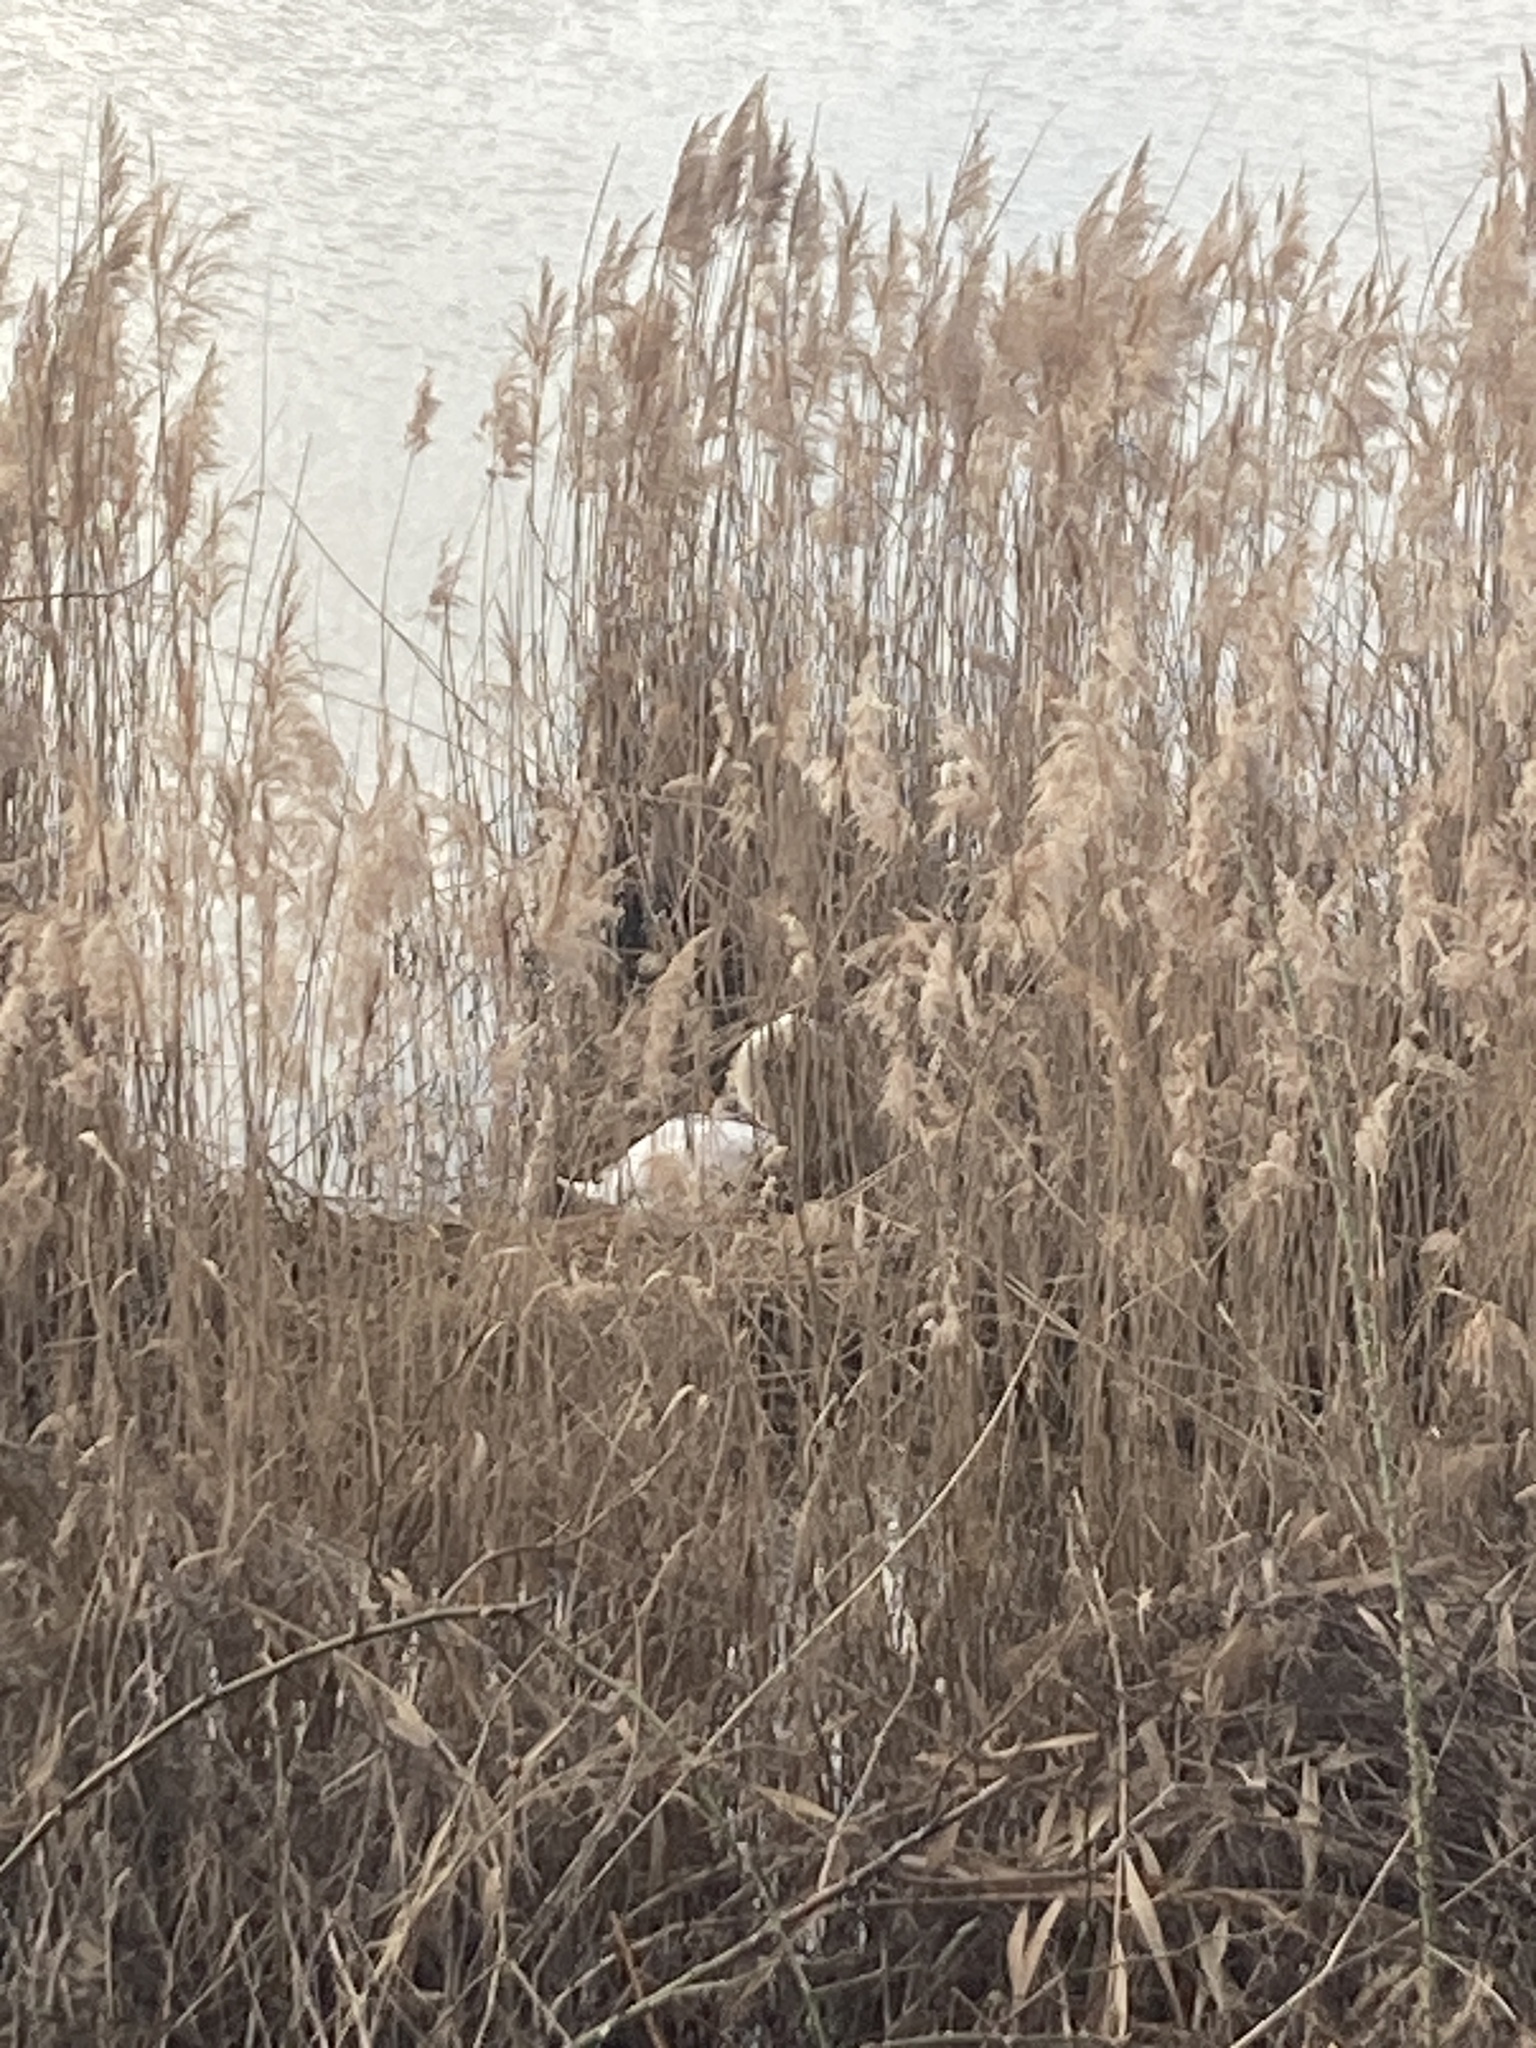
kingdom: Animalia
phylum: Chordata
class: Aves
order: Anseriformes
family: Anatidae
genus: Cygnus
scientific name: Cygnus olor
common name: Mute swan
